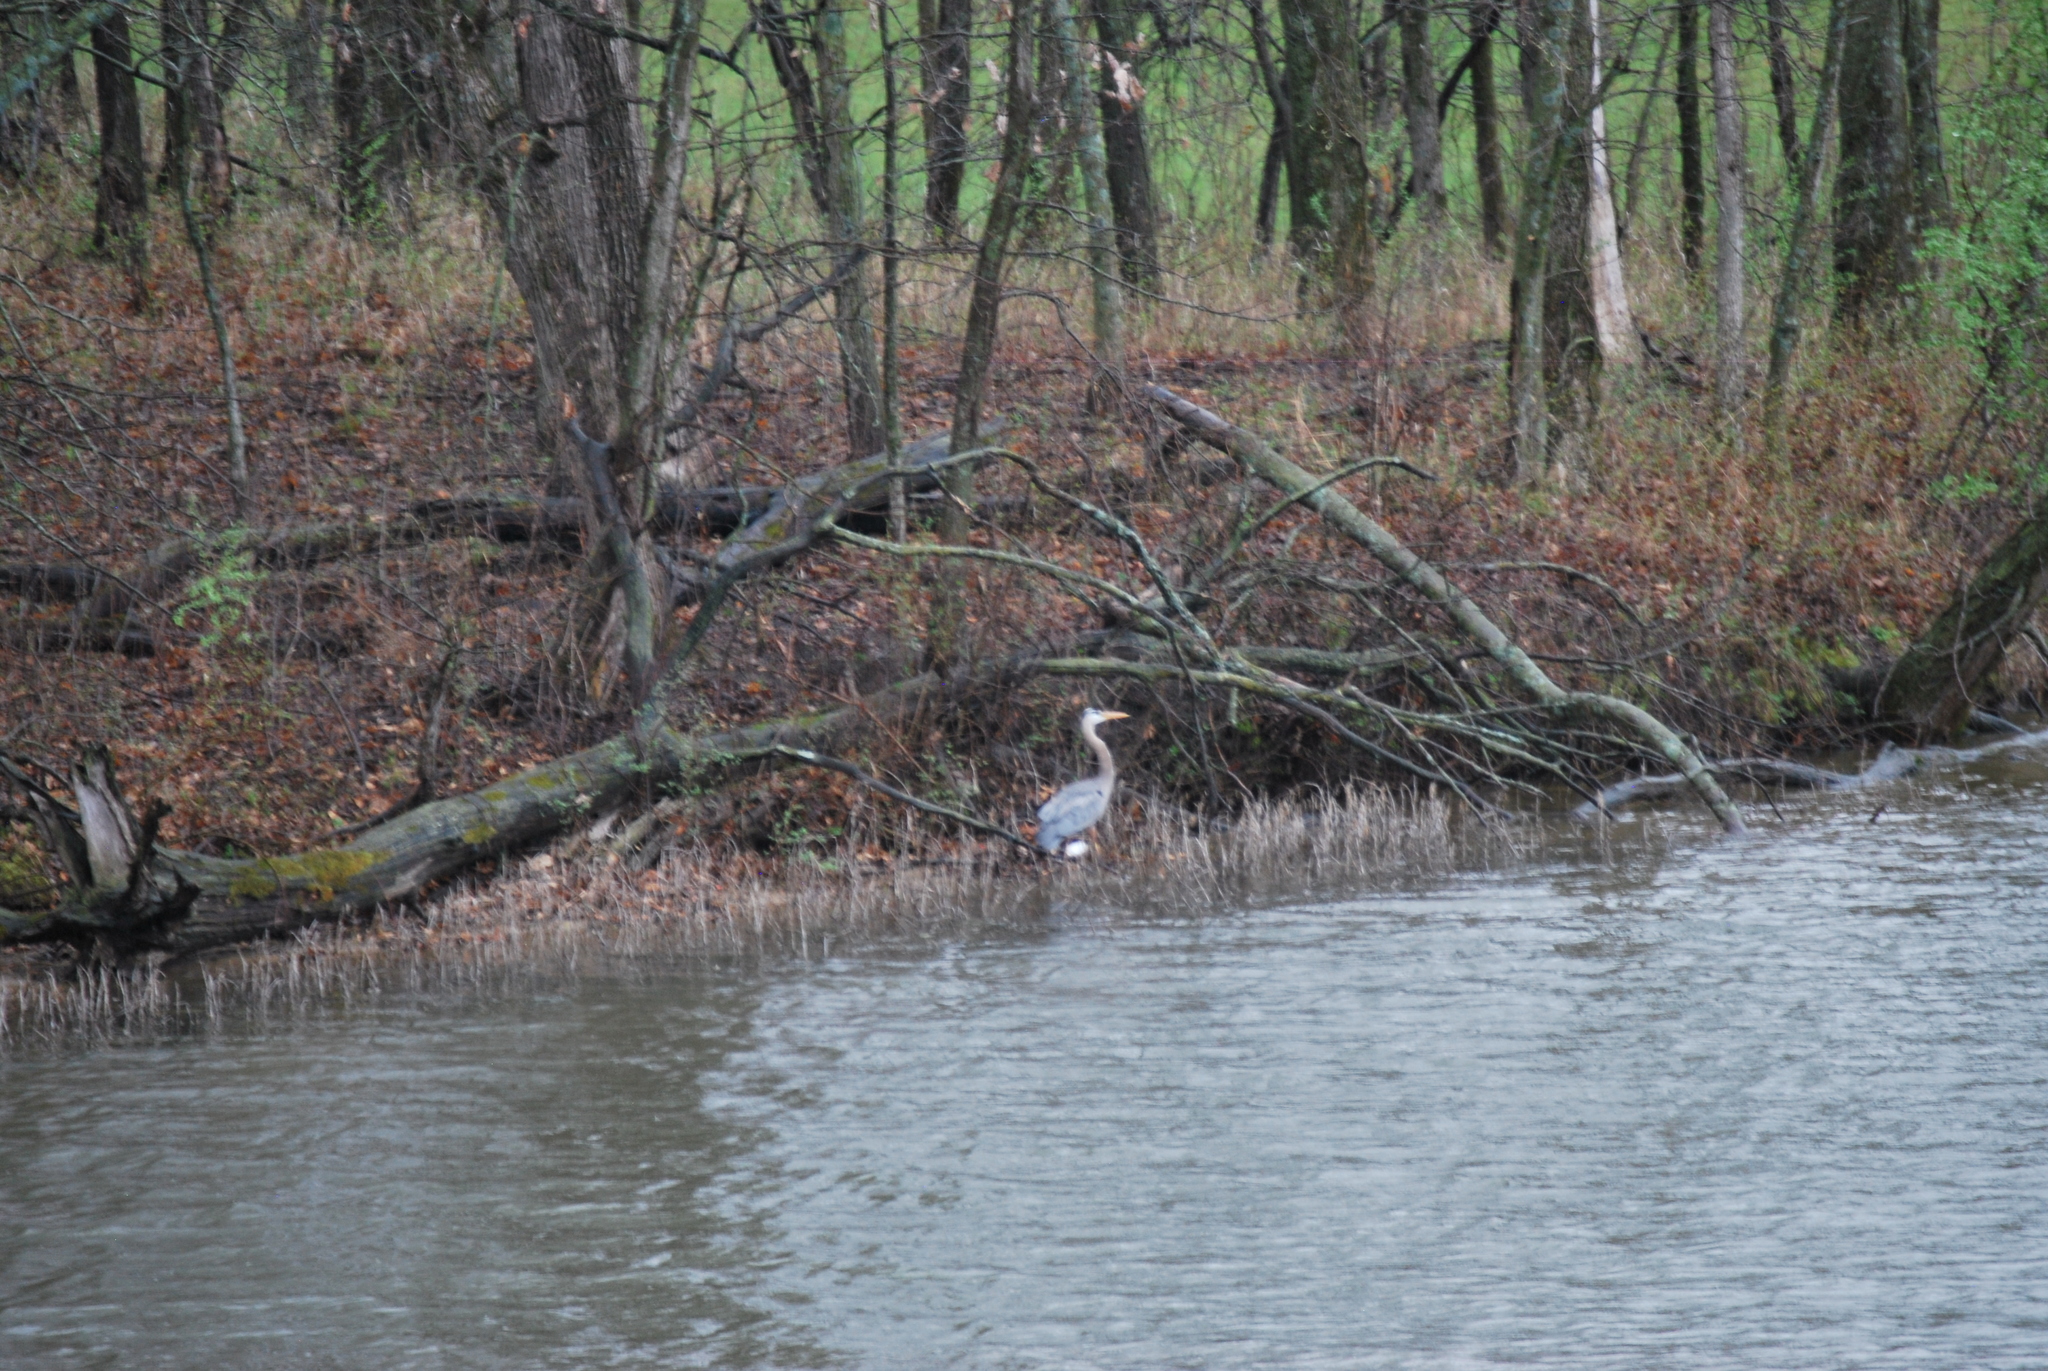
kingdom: Animalia
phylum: Chordata
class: Aves
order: Pelecaniformes
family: Ardeidae
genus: Ardea
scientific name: Ardea herodias
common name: Great blue heron
